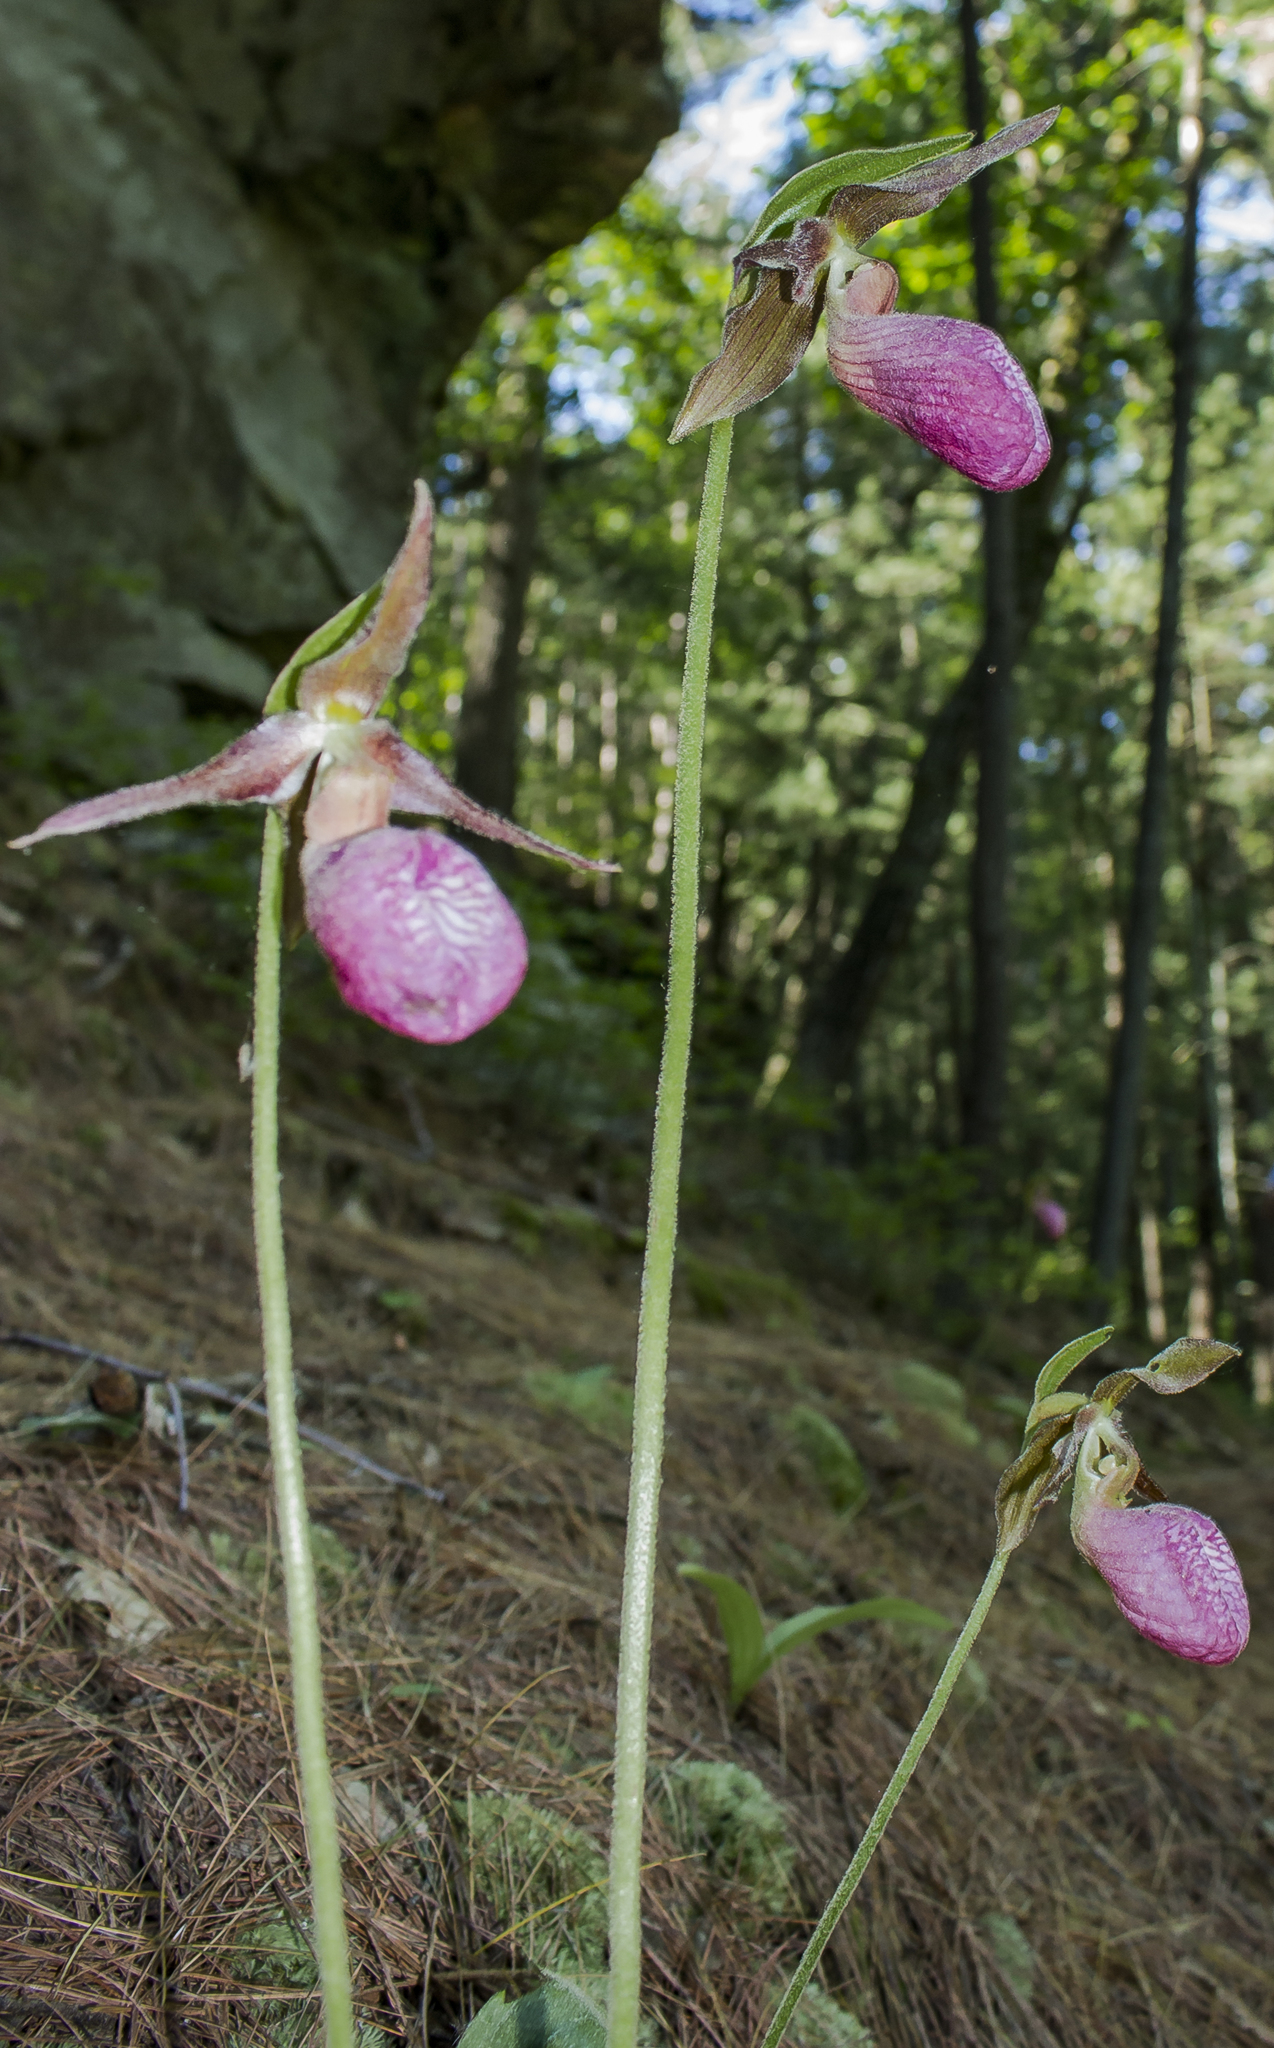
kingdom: Plantae
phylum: Tracheophyta
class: Liliopsida
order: Asparagales
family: Orchidaceae
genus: Cypripedium
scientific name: Cypripedium acaule
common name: Pink lady's-slipper
